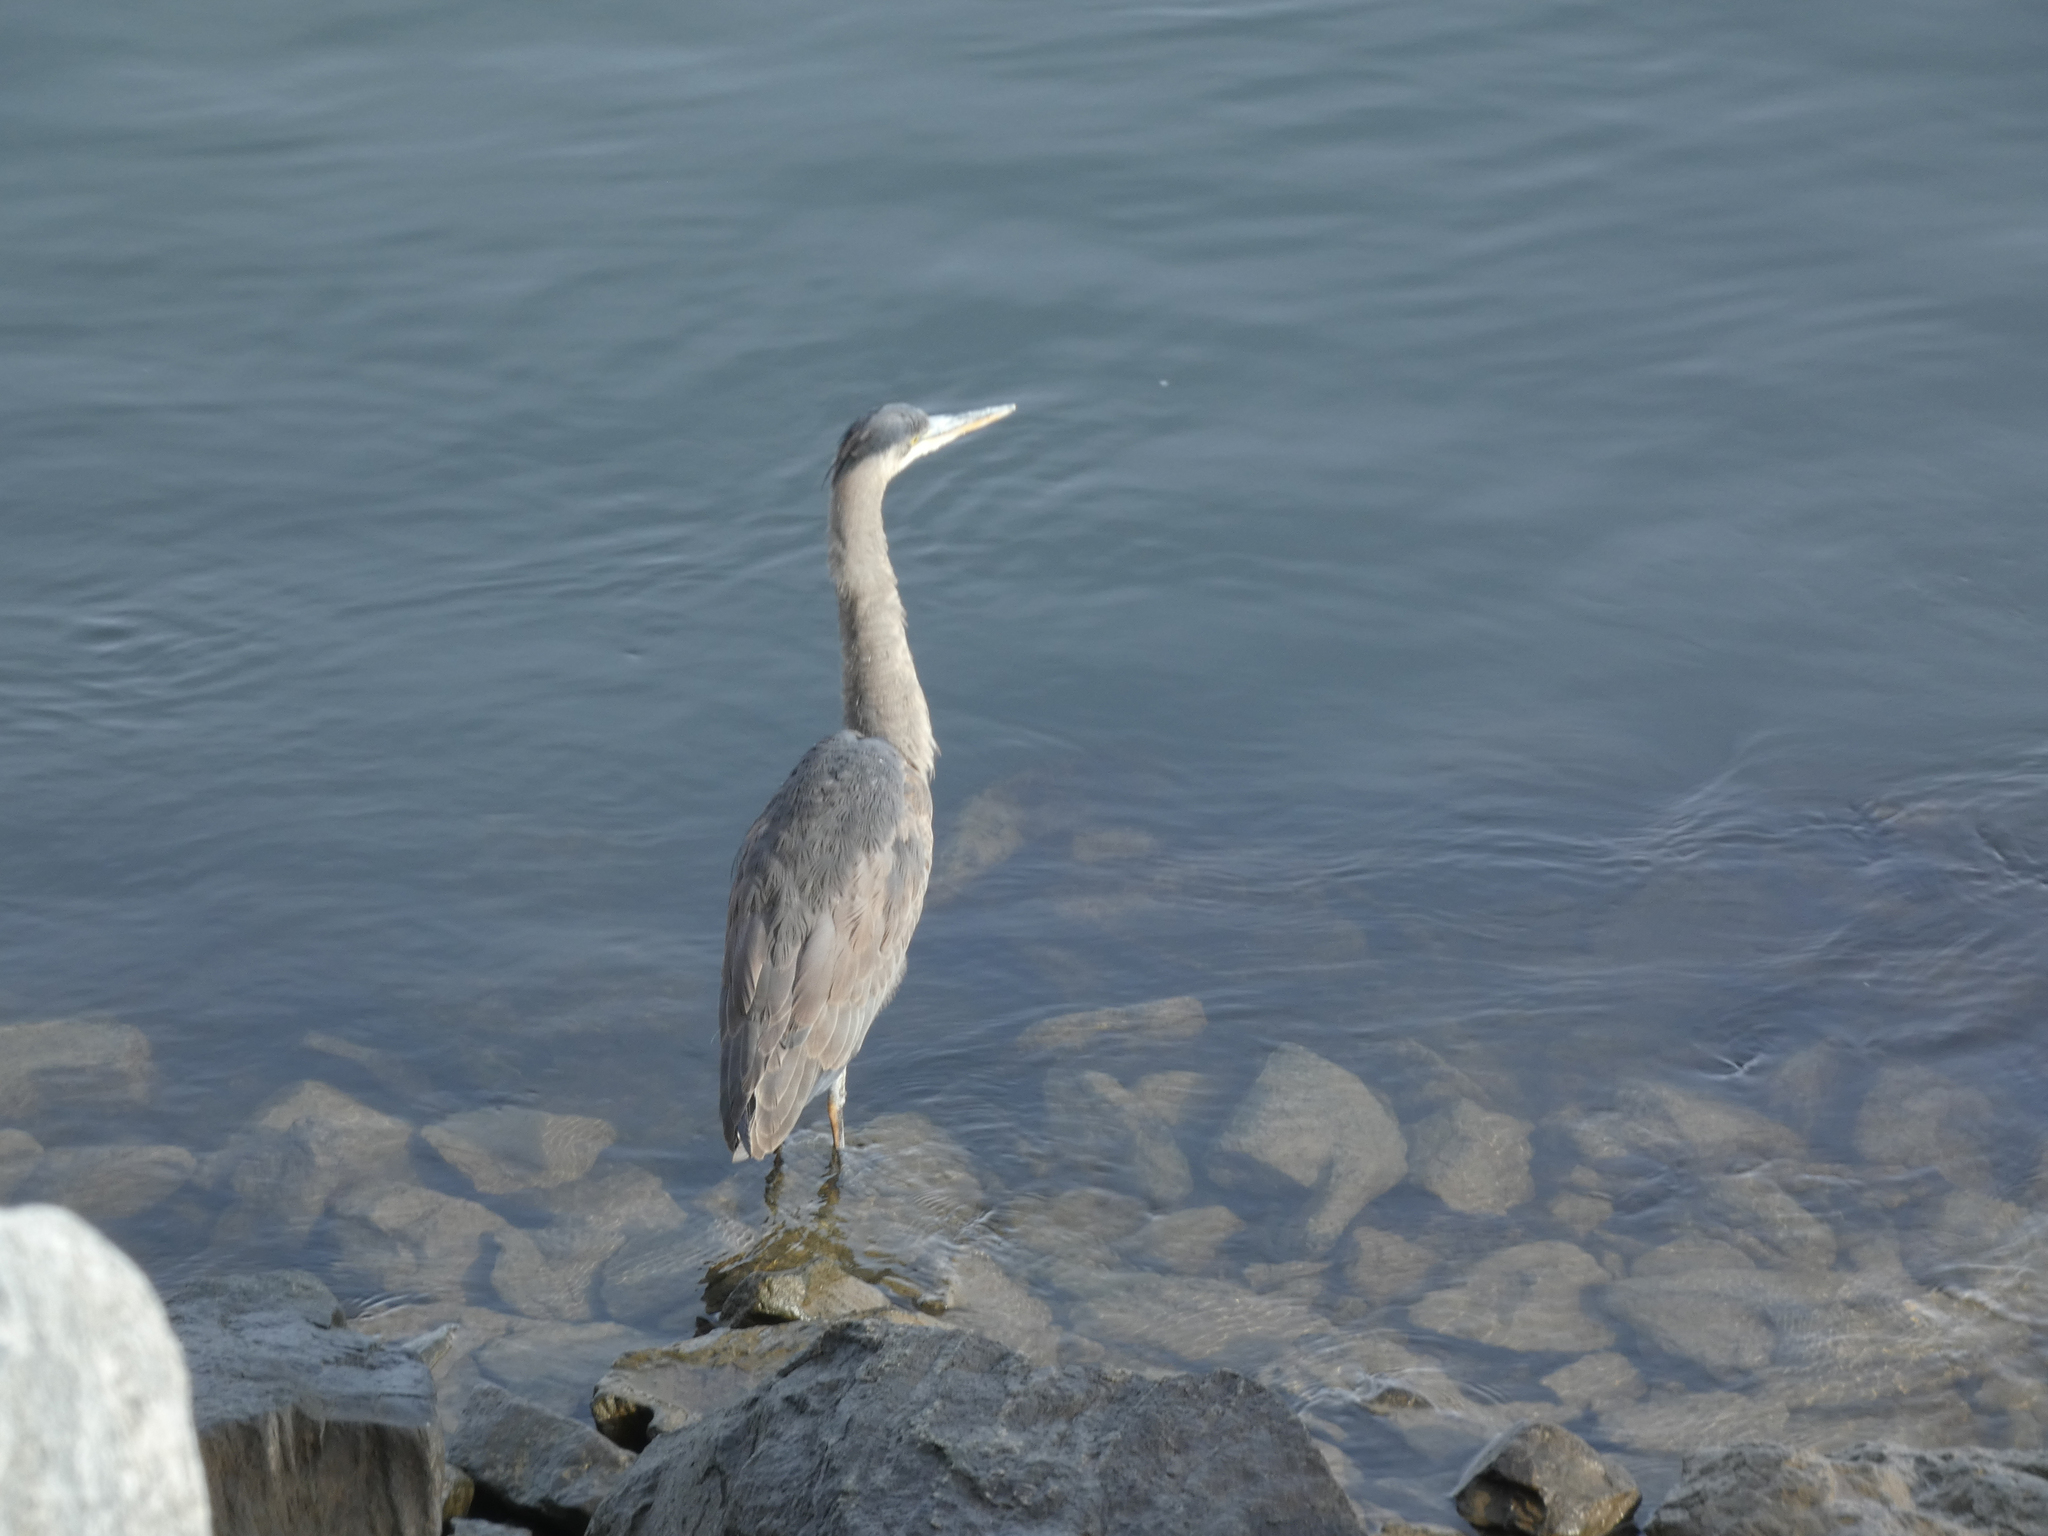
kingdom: Animalia
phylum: Chordata
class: Aves
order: Pelecaniformes
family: Ardeidae
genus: Ardea
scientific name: Ardea herodias
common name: Great blue heron
